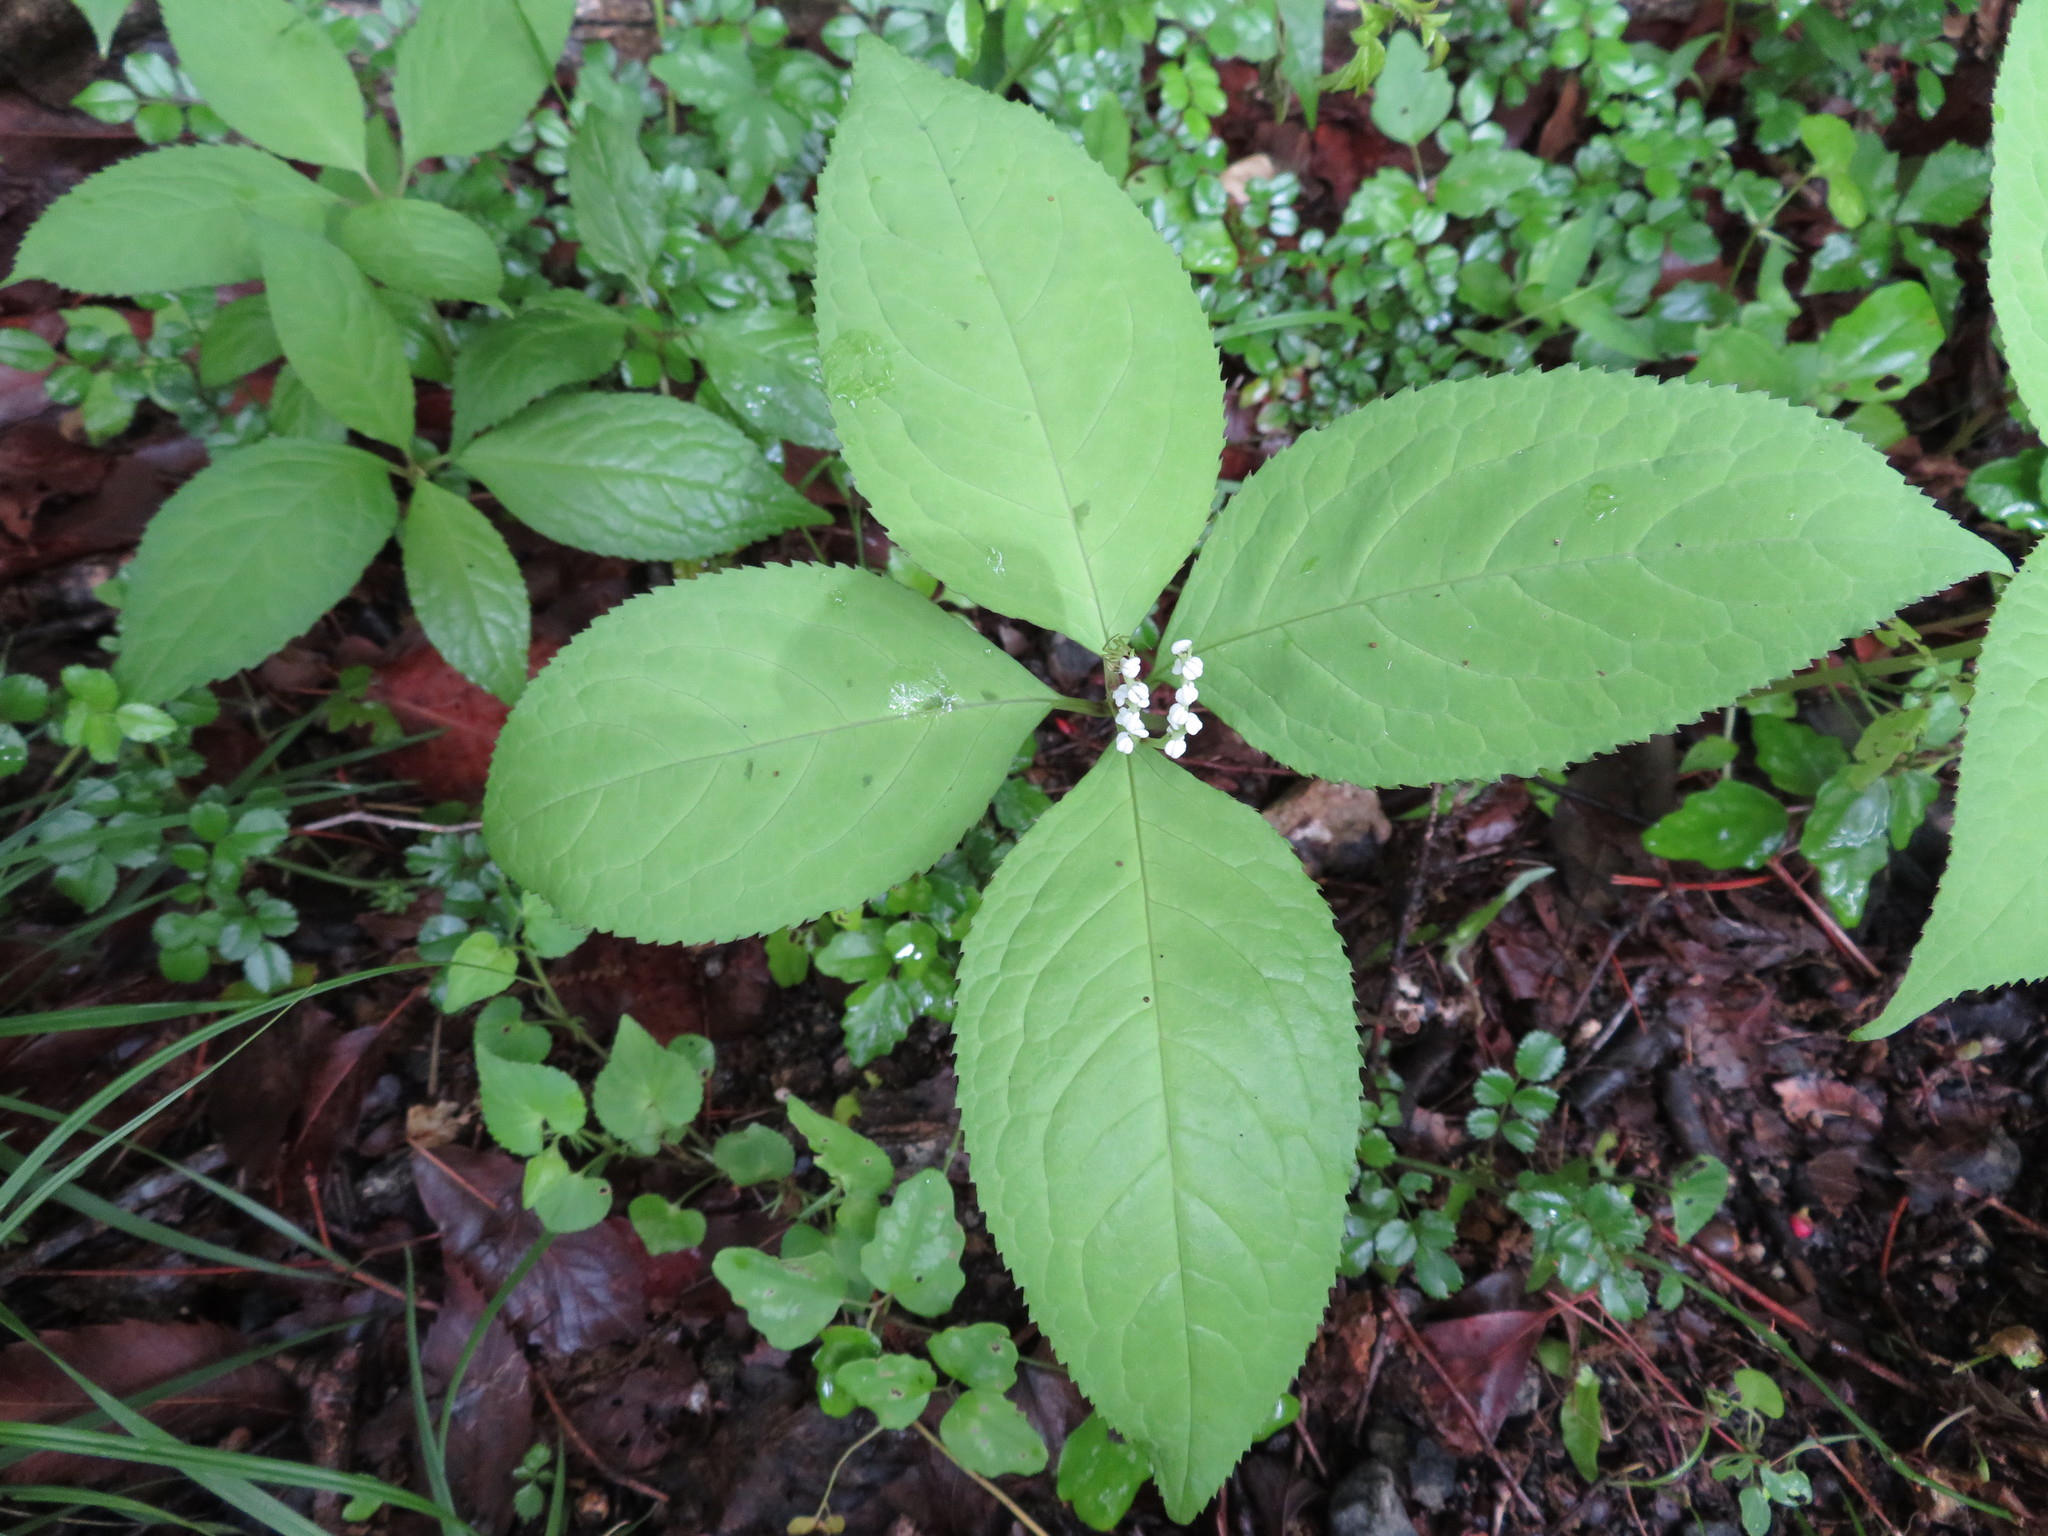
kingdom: Plantae
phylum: Tracheophyta
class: Magnoliopsida
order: Chloranthales
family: Chloranthaceae
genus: Chloranthus
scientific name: Chloranthus serratus
